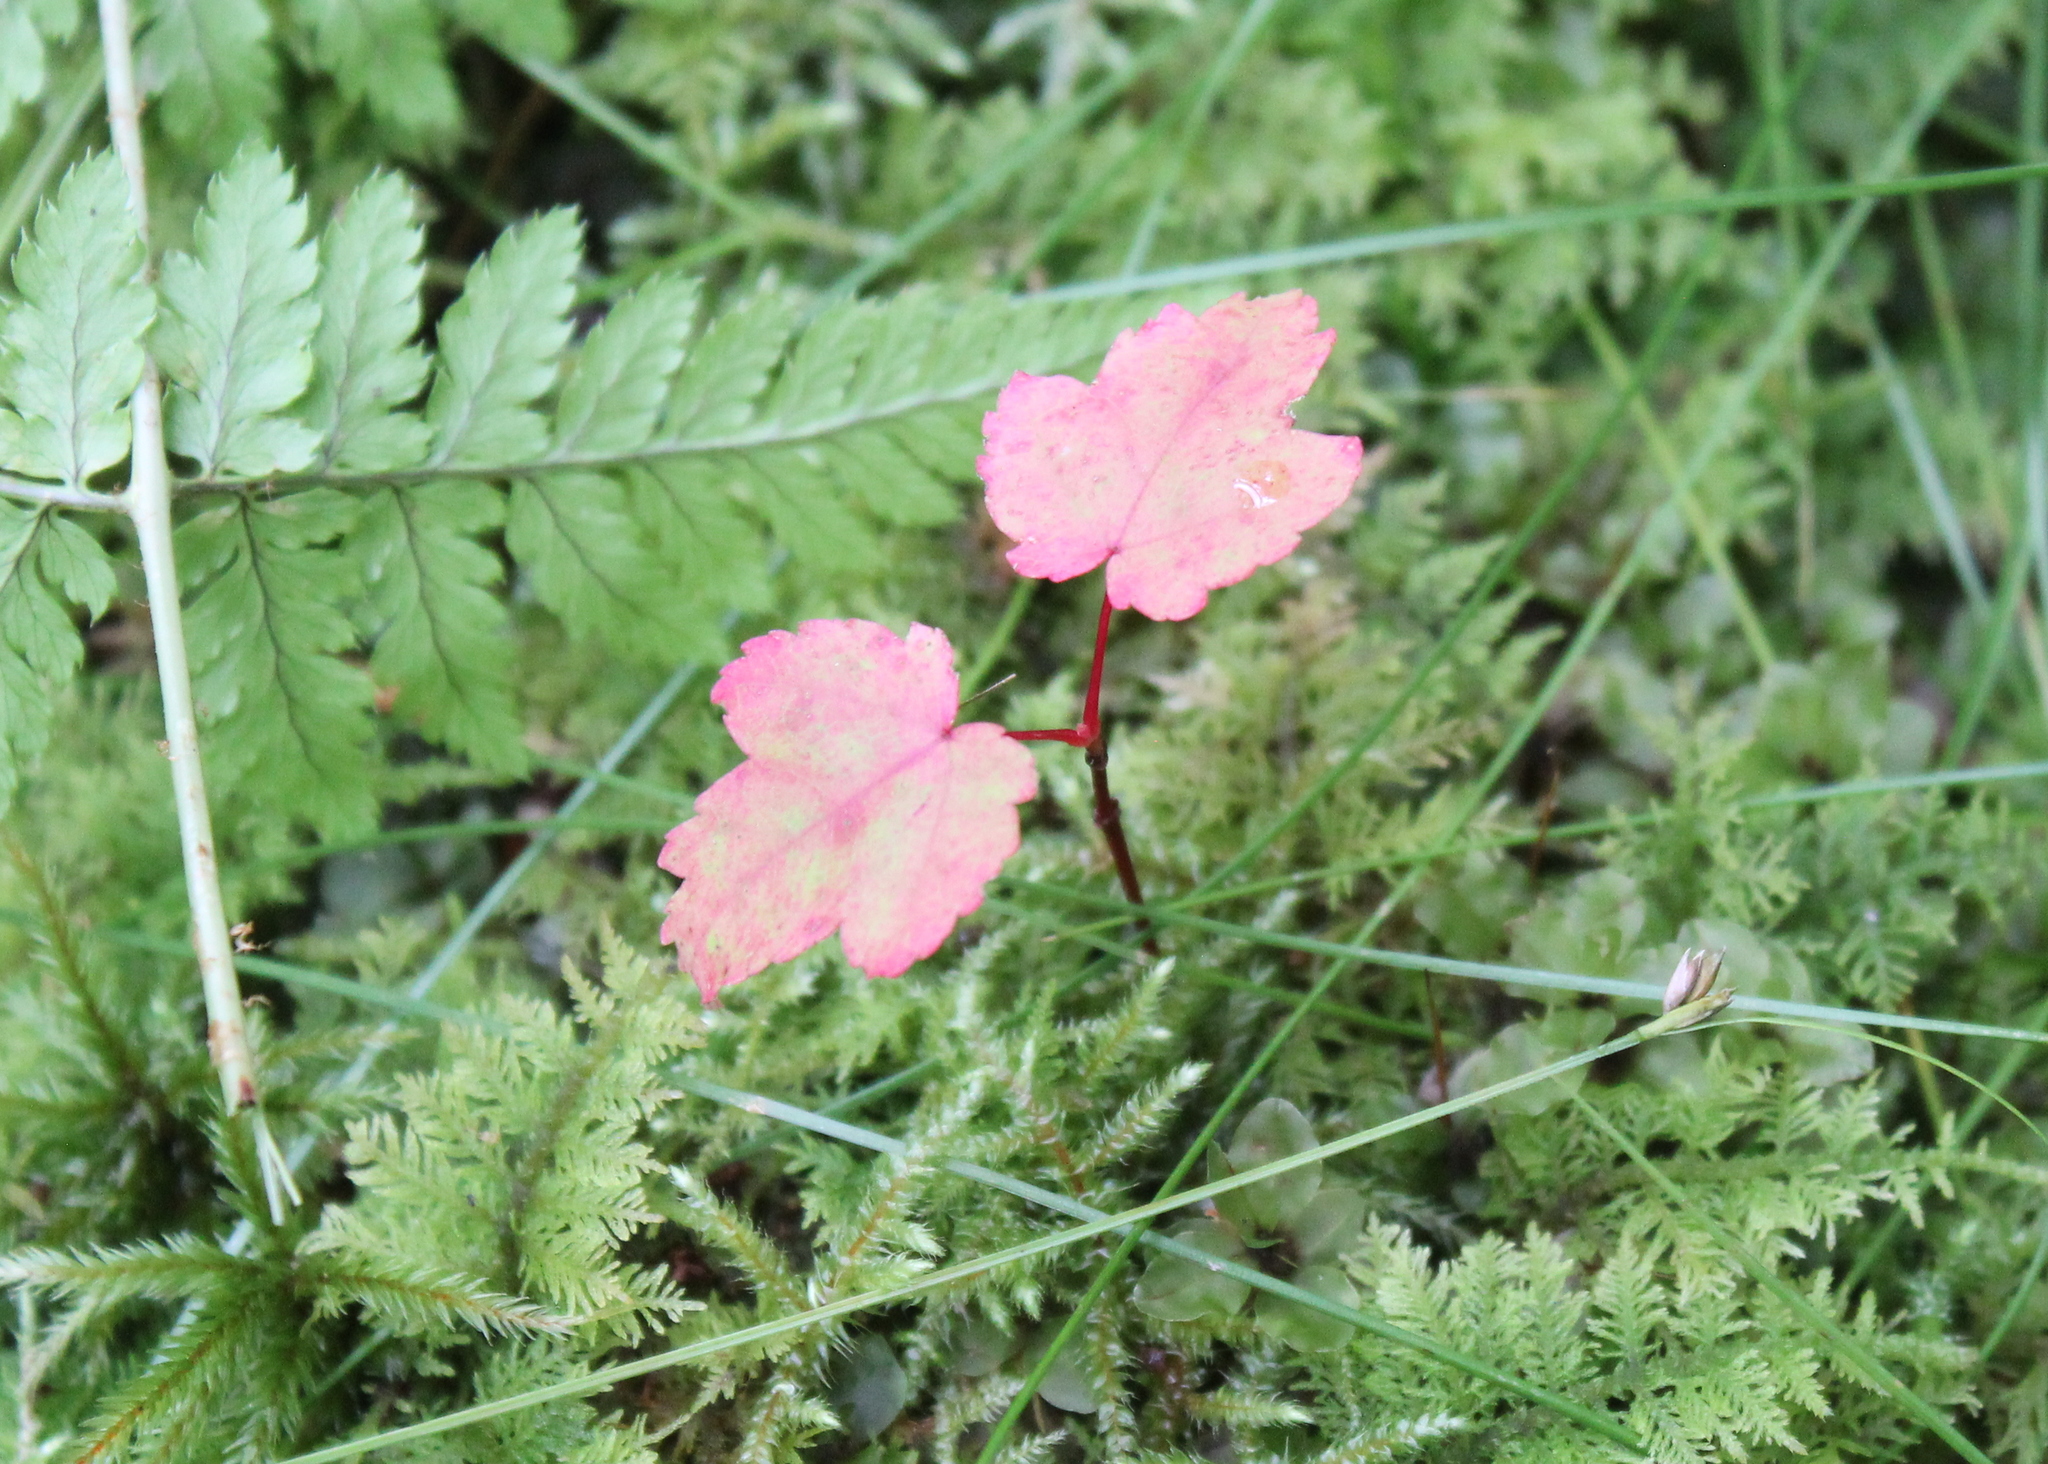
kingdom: Plantae
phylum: Tracheophyta
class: Magnoliopsida
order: Sapindales
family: Sapindaceae
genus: Acer
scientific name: Acer rubrum
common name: Red maple
